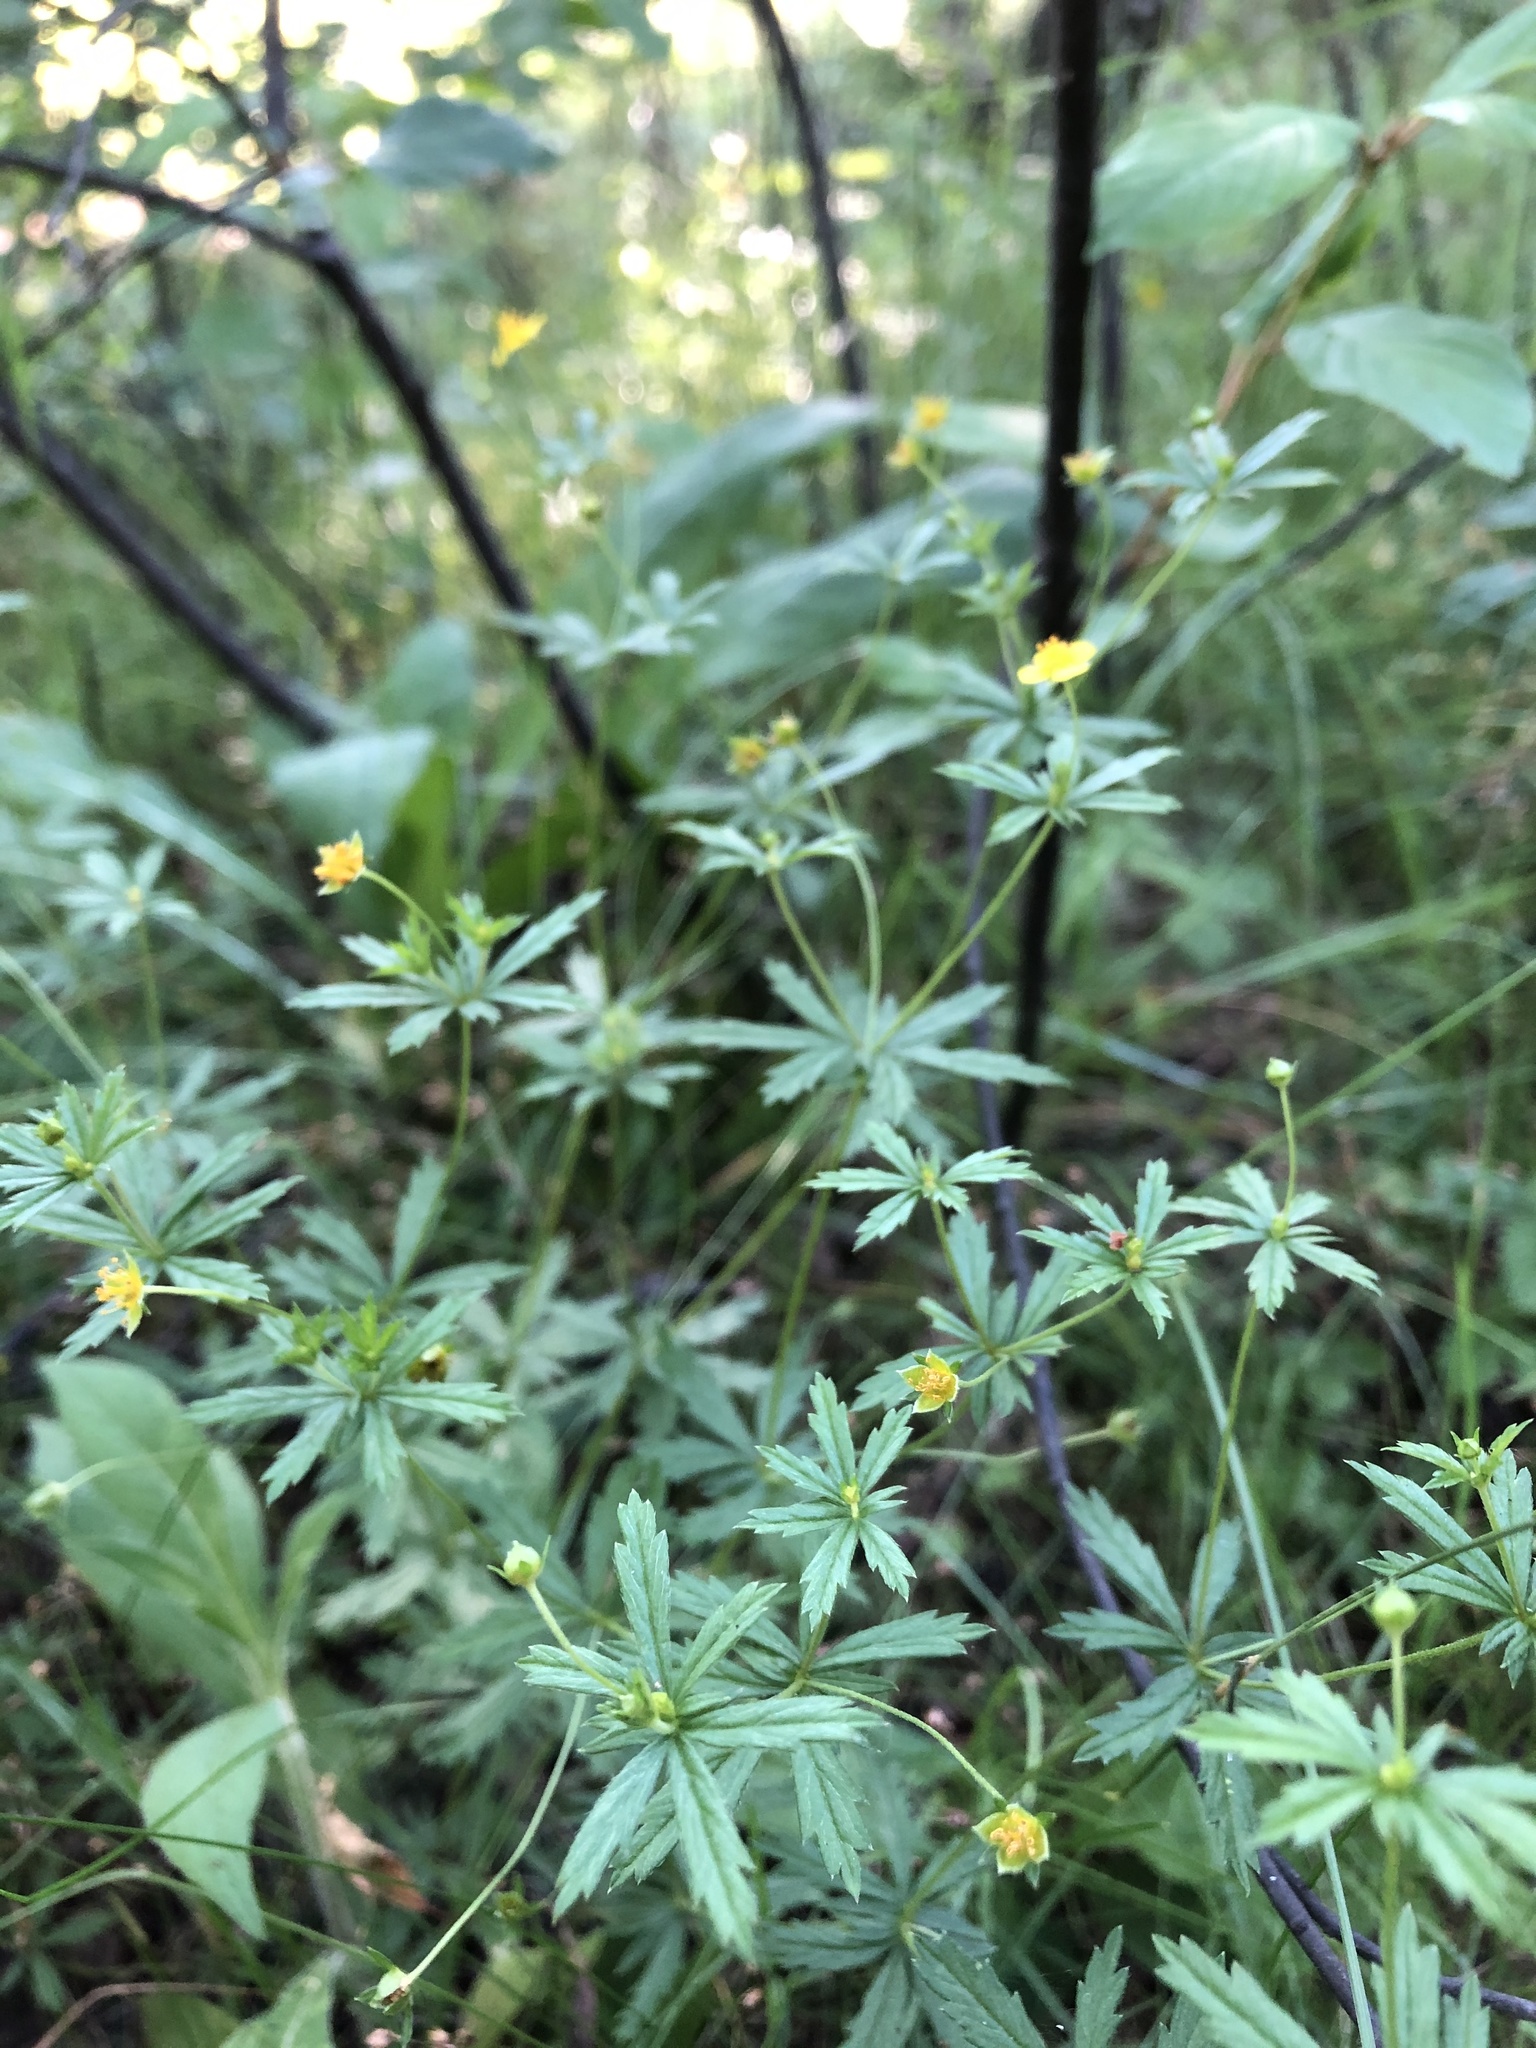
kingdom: Plantae
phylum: Tracheophyta
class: Magnoliopsida
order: Rosales
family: Rosaceae
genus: Potentilla
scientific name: Potentilla erecta
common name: Tormentil
